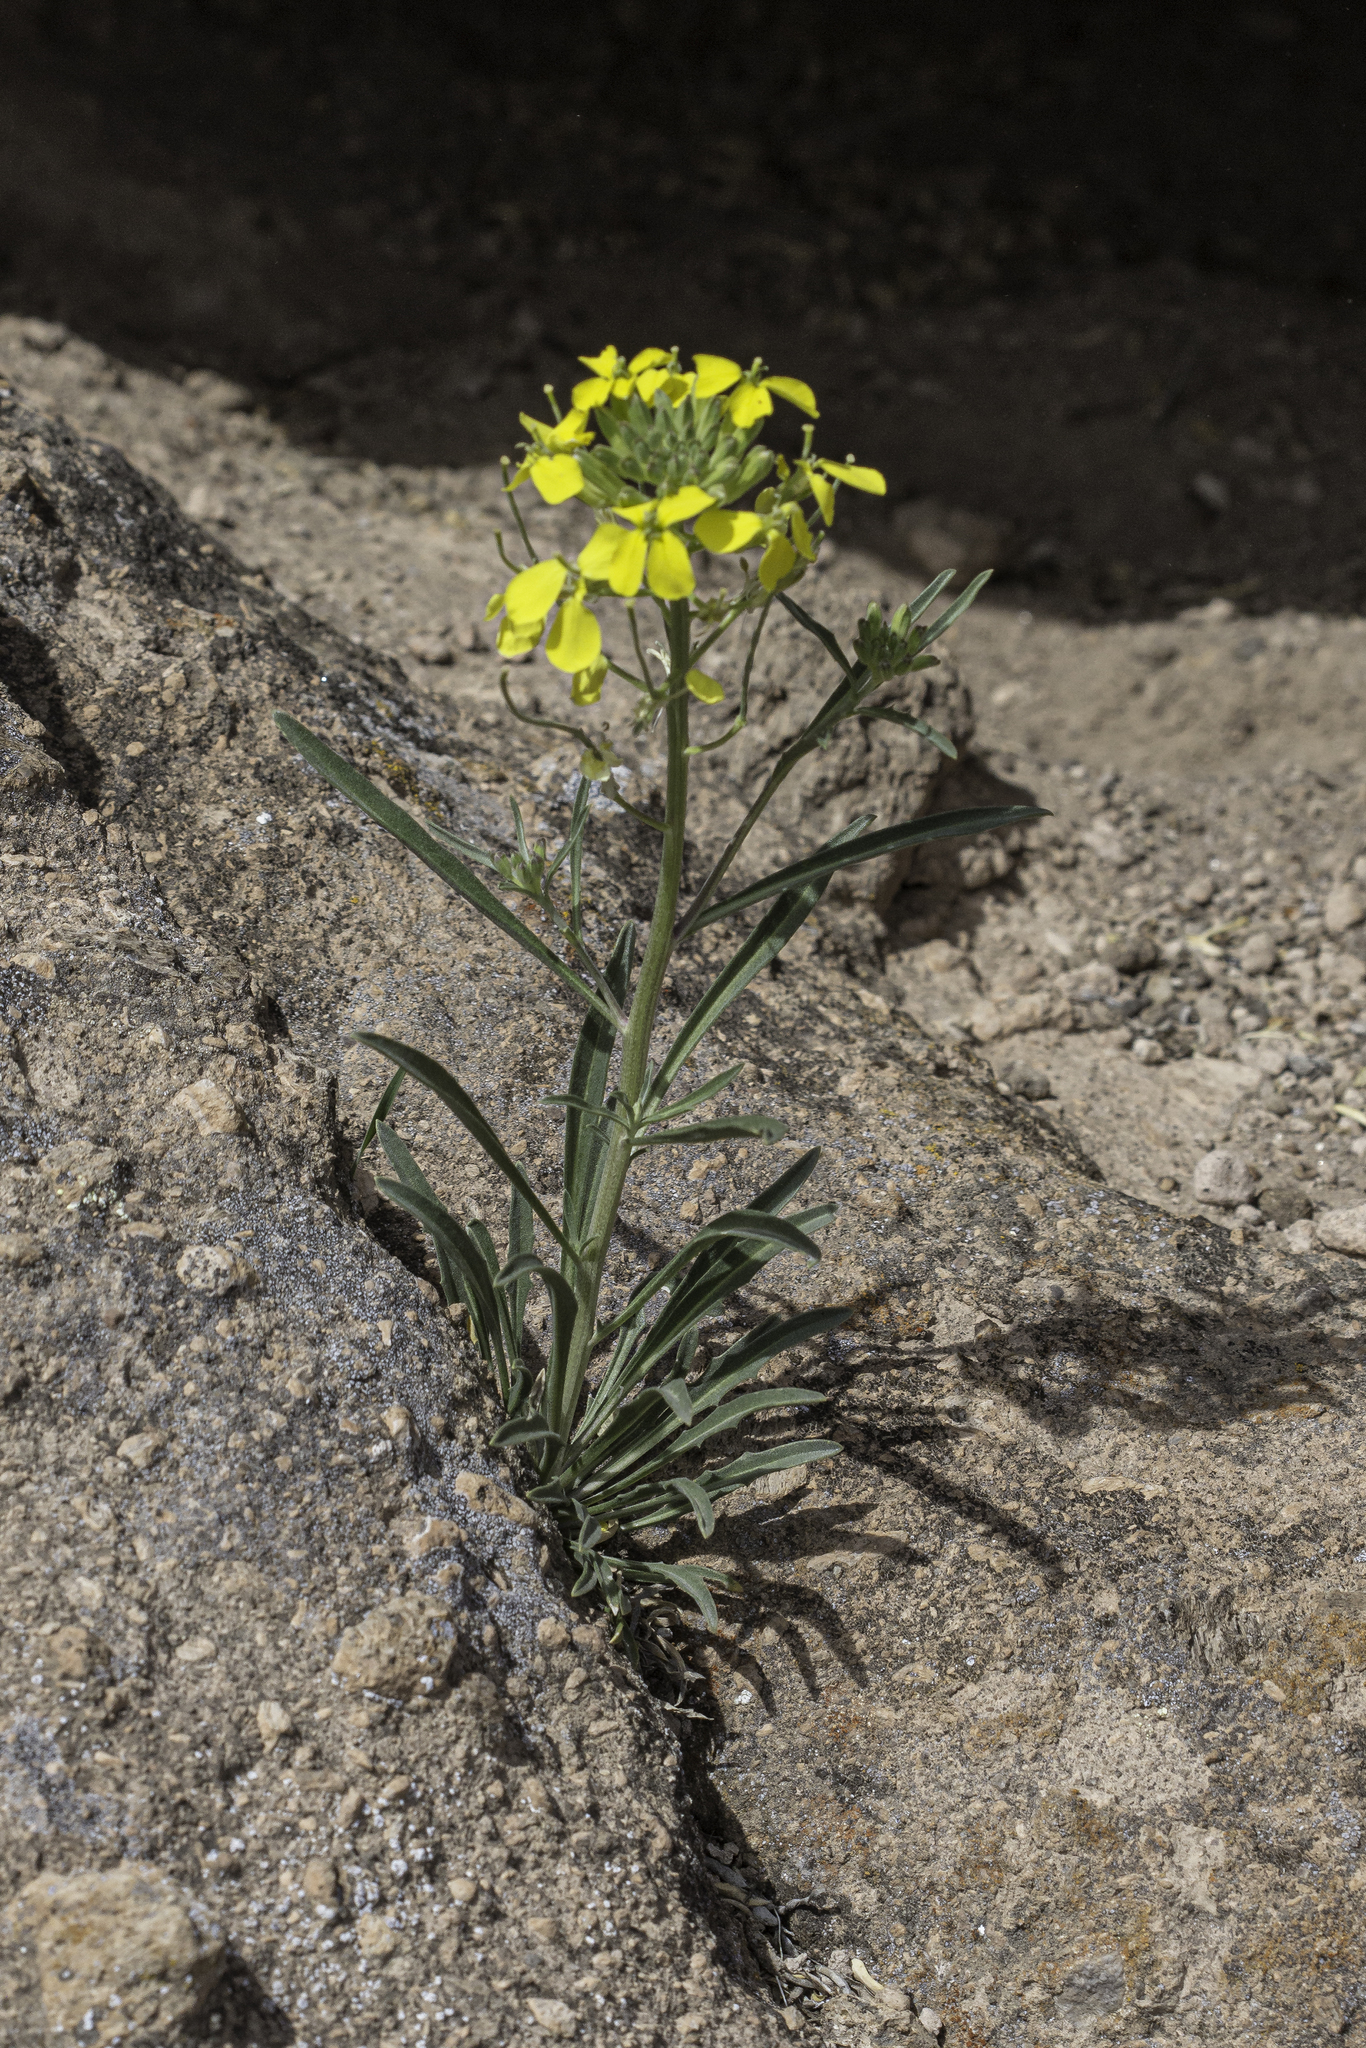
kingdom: Plantae
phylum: Tracheophyta
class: Magnoliopsida
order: Brassicales
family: Brassicaceae
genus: Erysimum
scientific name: Erysimum capitatum
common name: Western wallflower
